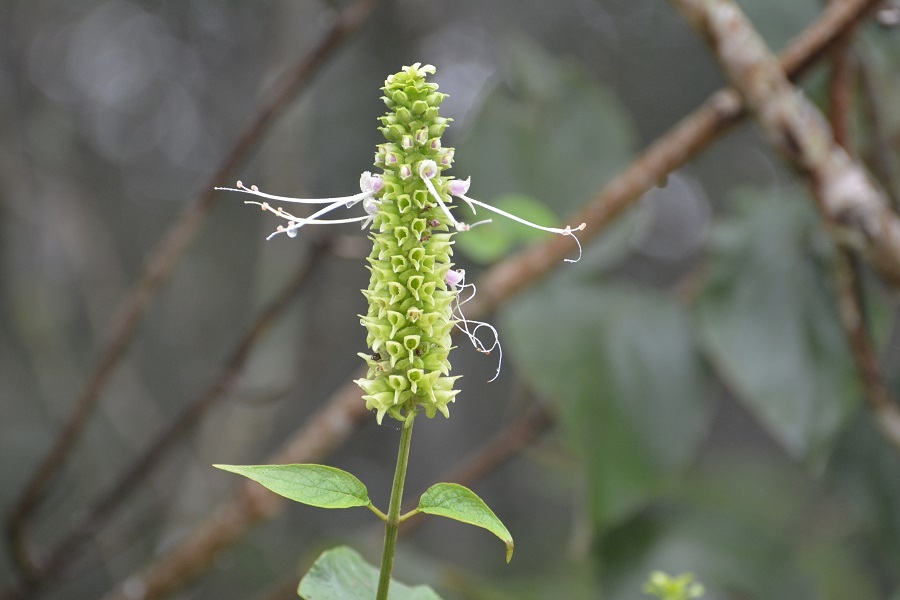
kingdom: Plantae
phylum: Tracheophyta
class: Magnoliopsida
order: Lamiales
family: Lamiaceae
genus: Catoferia
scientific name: Catoferia chiapensis
